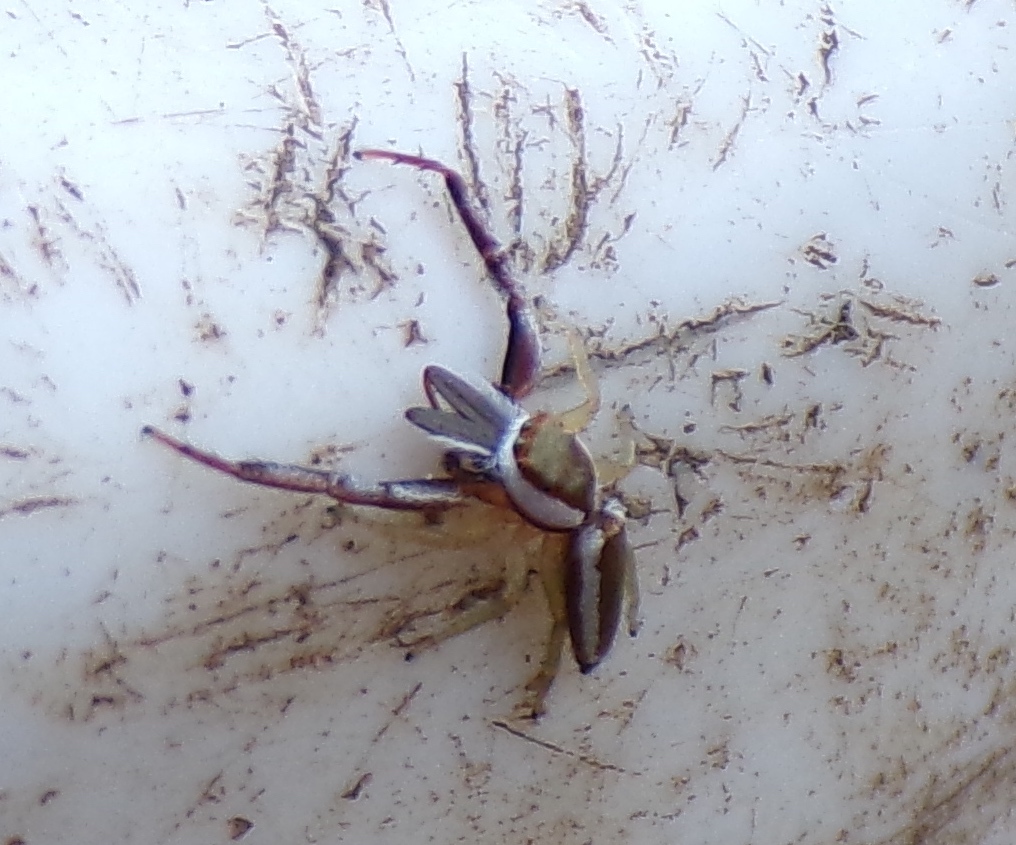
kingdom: Animalia
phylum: Arthropoda
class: Arachnida
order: Araneae
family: Salticidae
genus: Hentzia
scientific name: Hentzia palmarum
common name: Common hentz jumping spider
